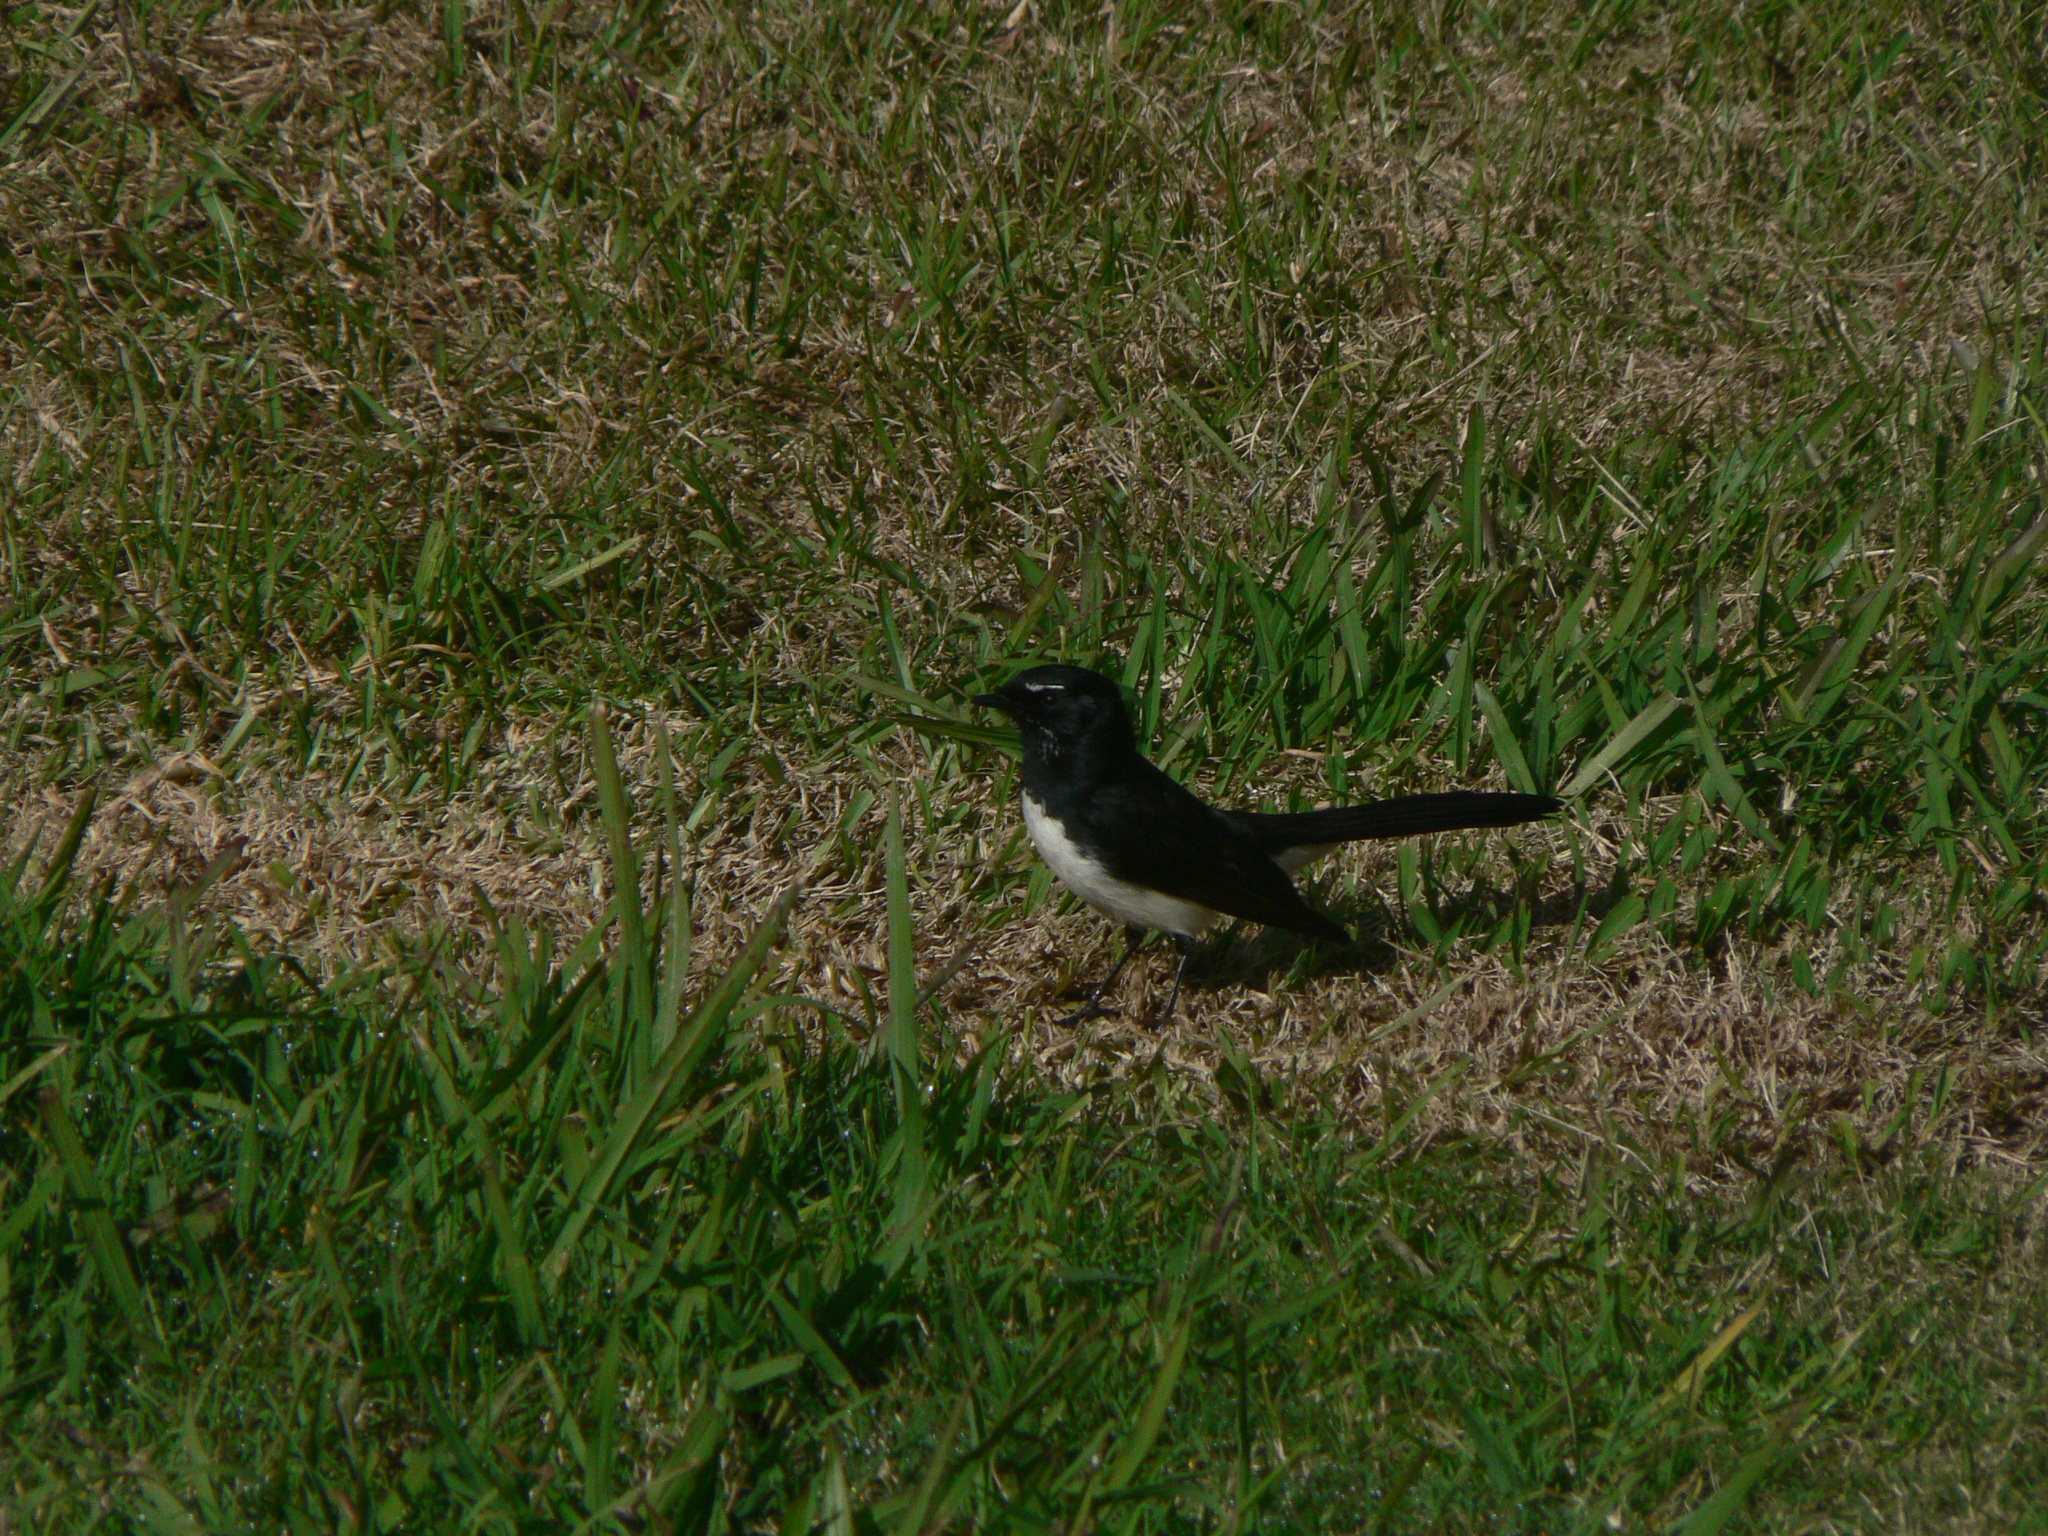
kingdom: Animalia
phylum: Chordata
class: Aves
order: Passeriformes
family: Rhipiduridae
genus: Rhipidura
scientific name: Rhipidura leucophrys
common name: Willie wagtail
